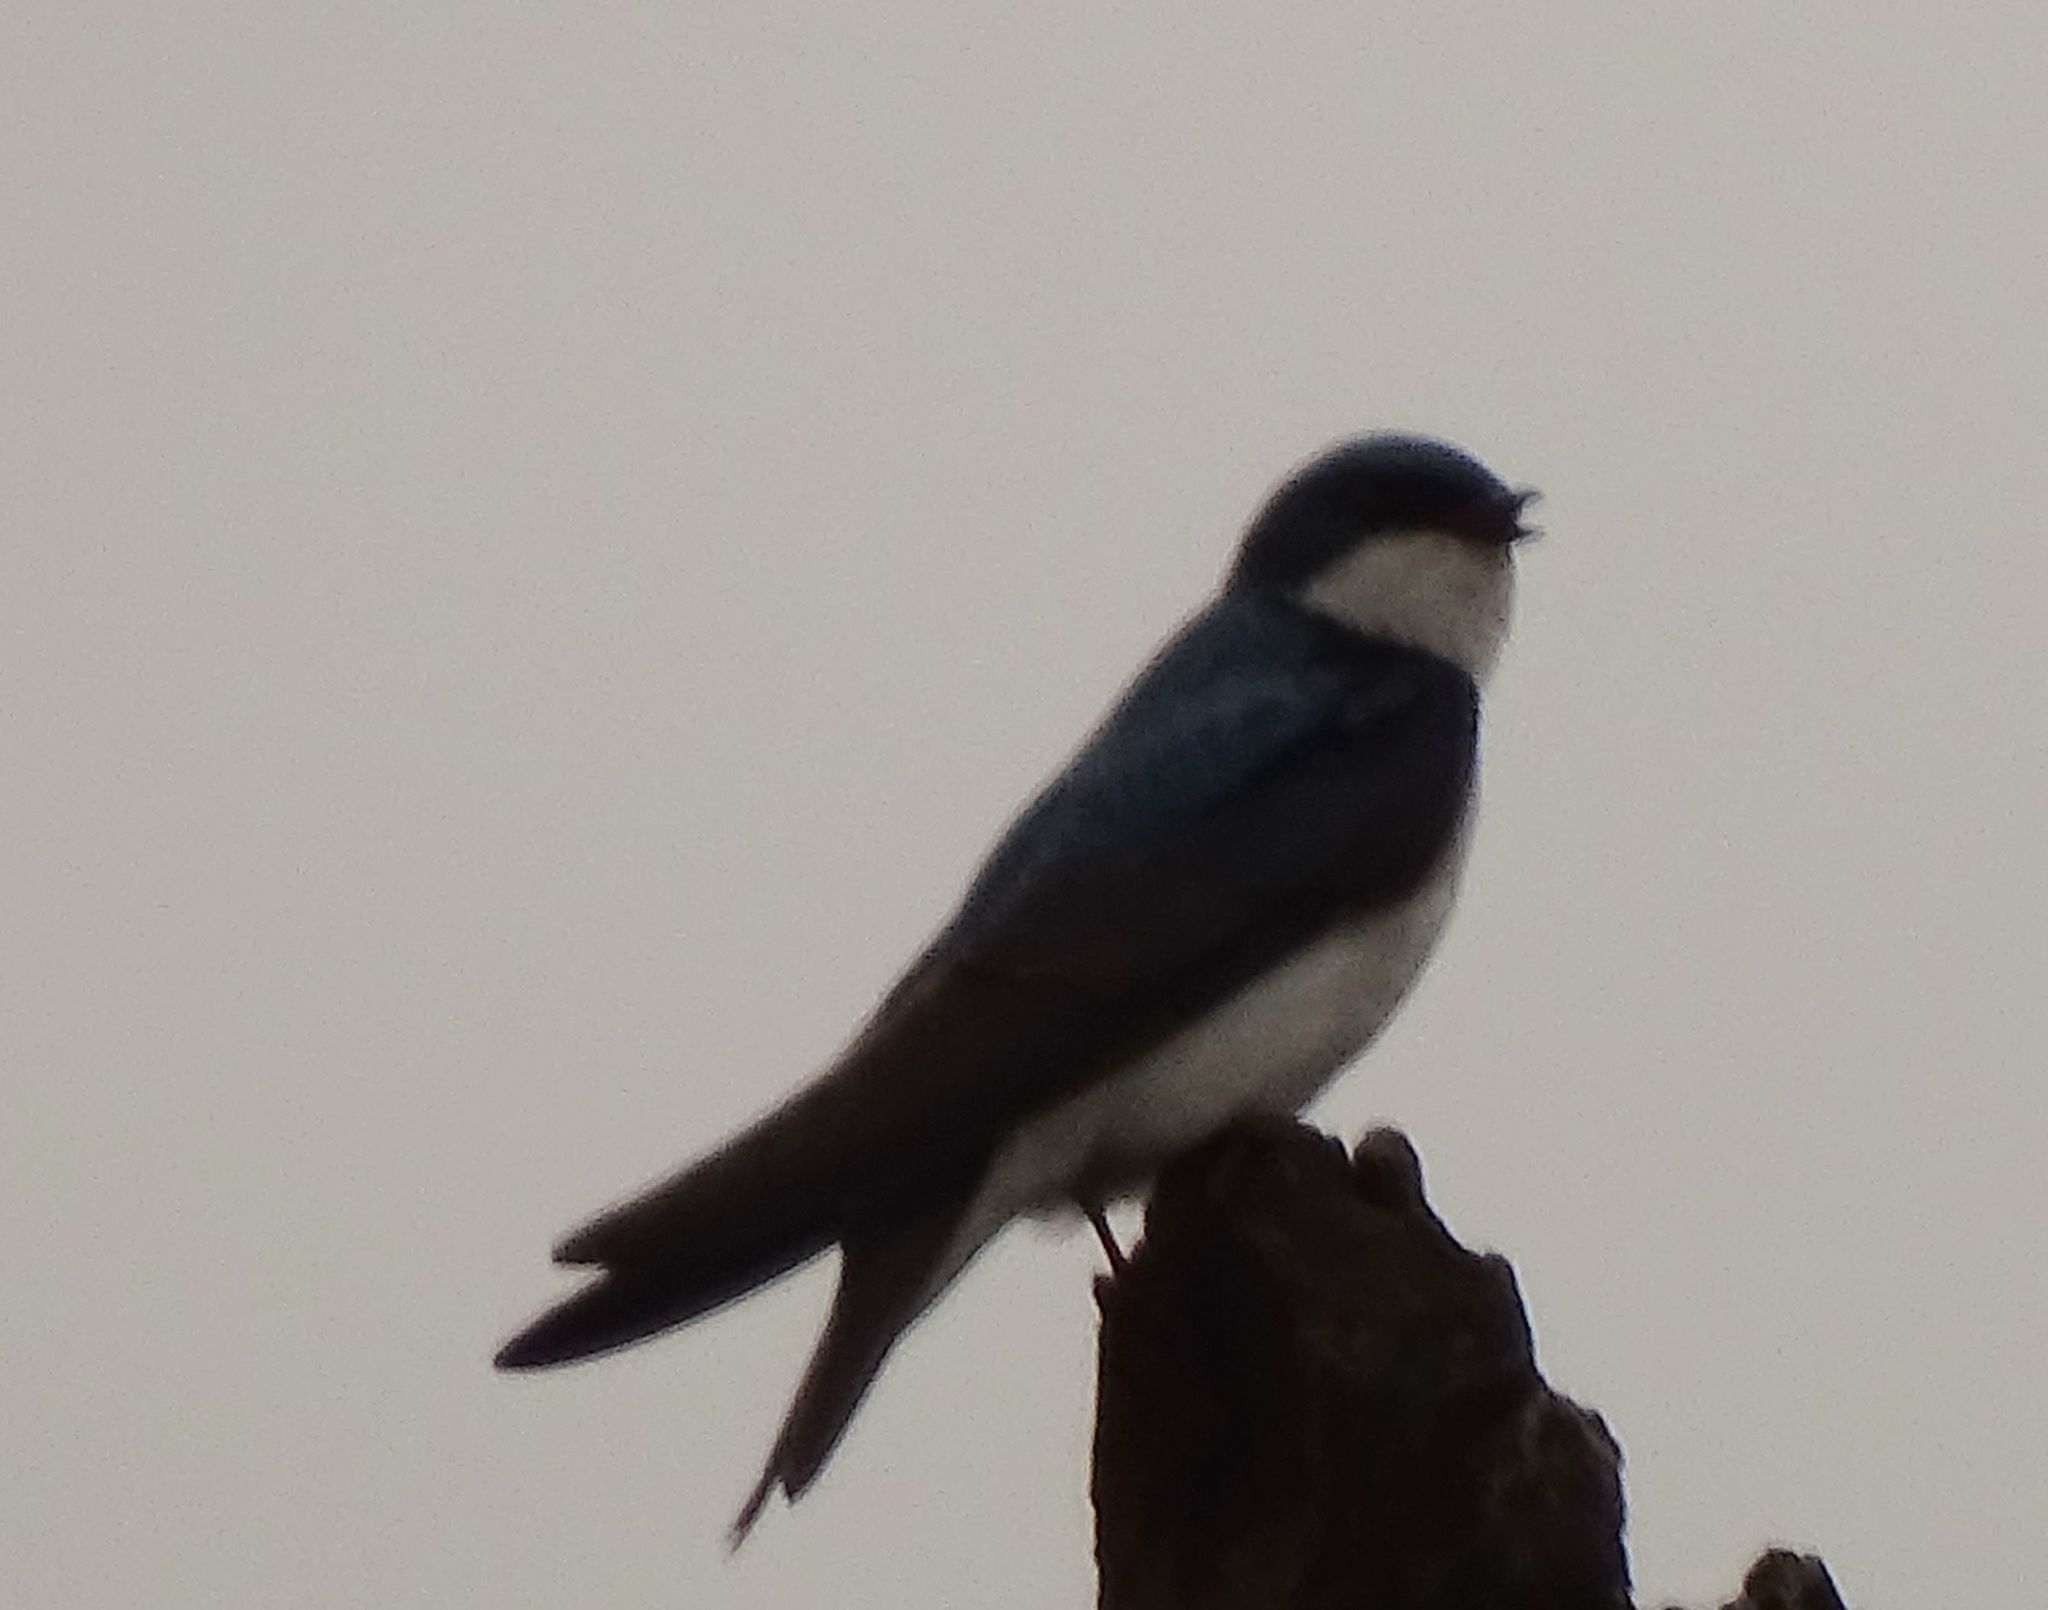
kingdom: Animalia
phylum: Chordata
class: Aves
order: Passeriformes
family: Hirundinidae
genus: Tachycineta
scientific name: Tachycineta bicolor
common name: Tree swallow
